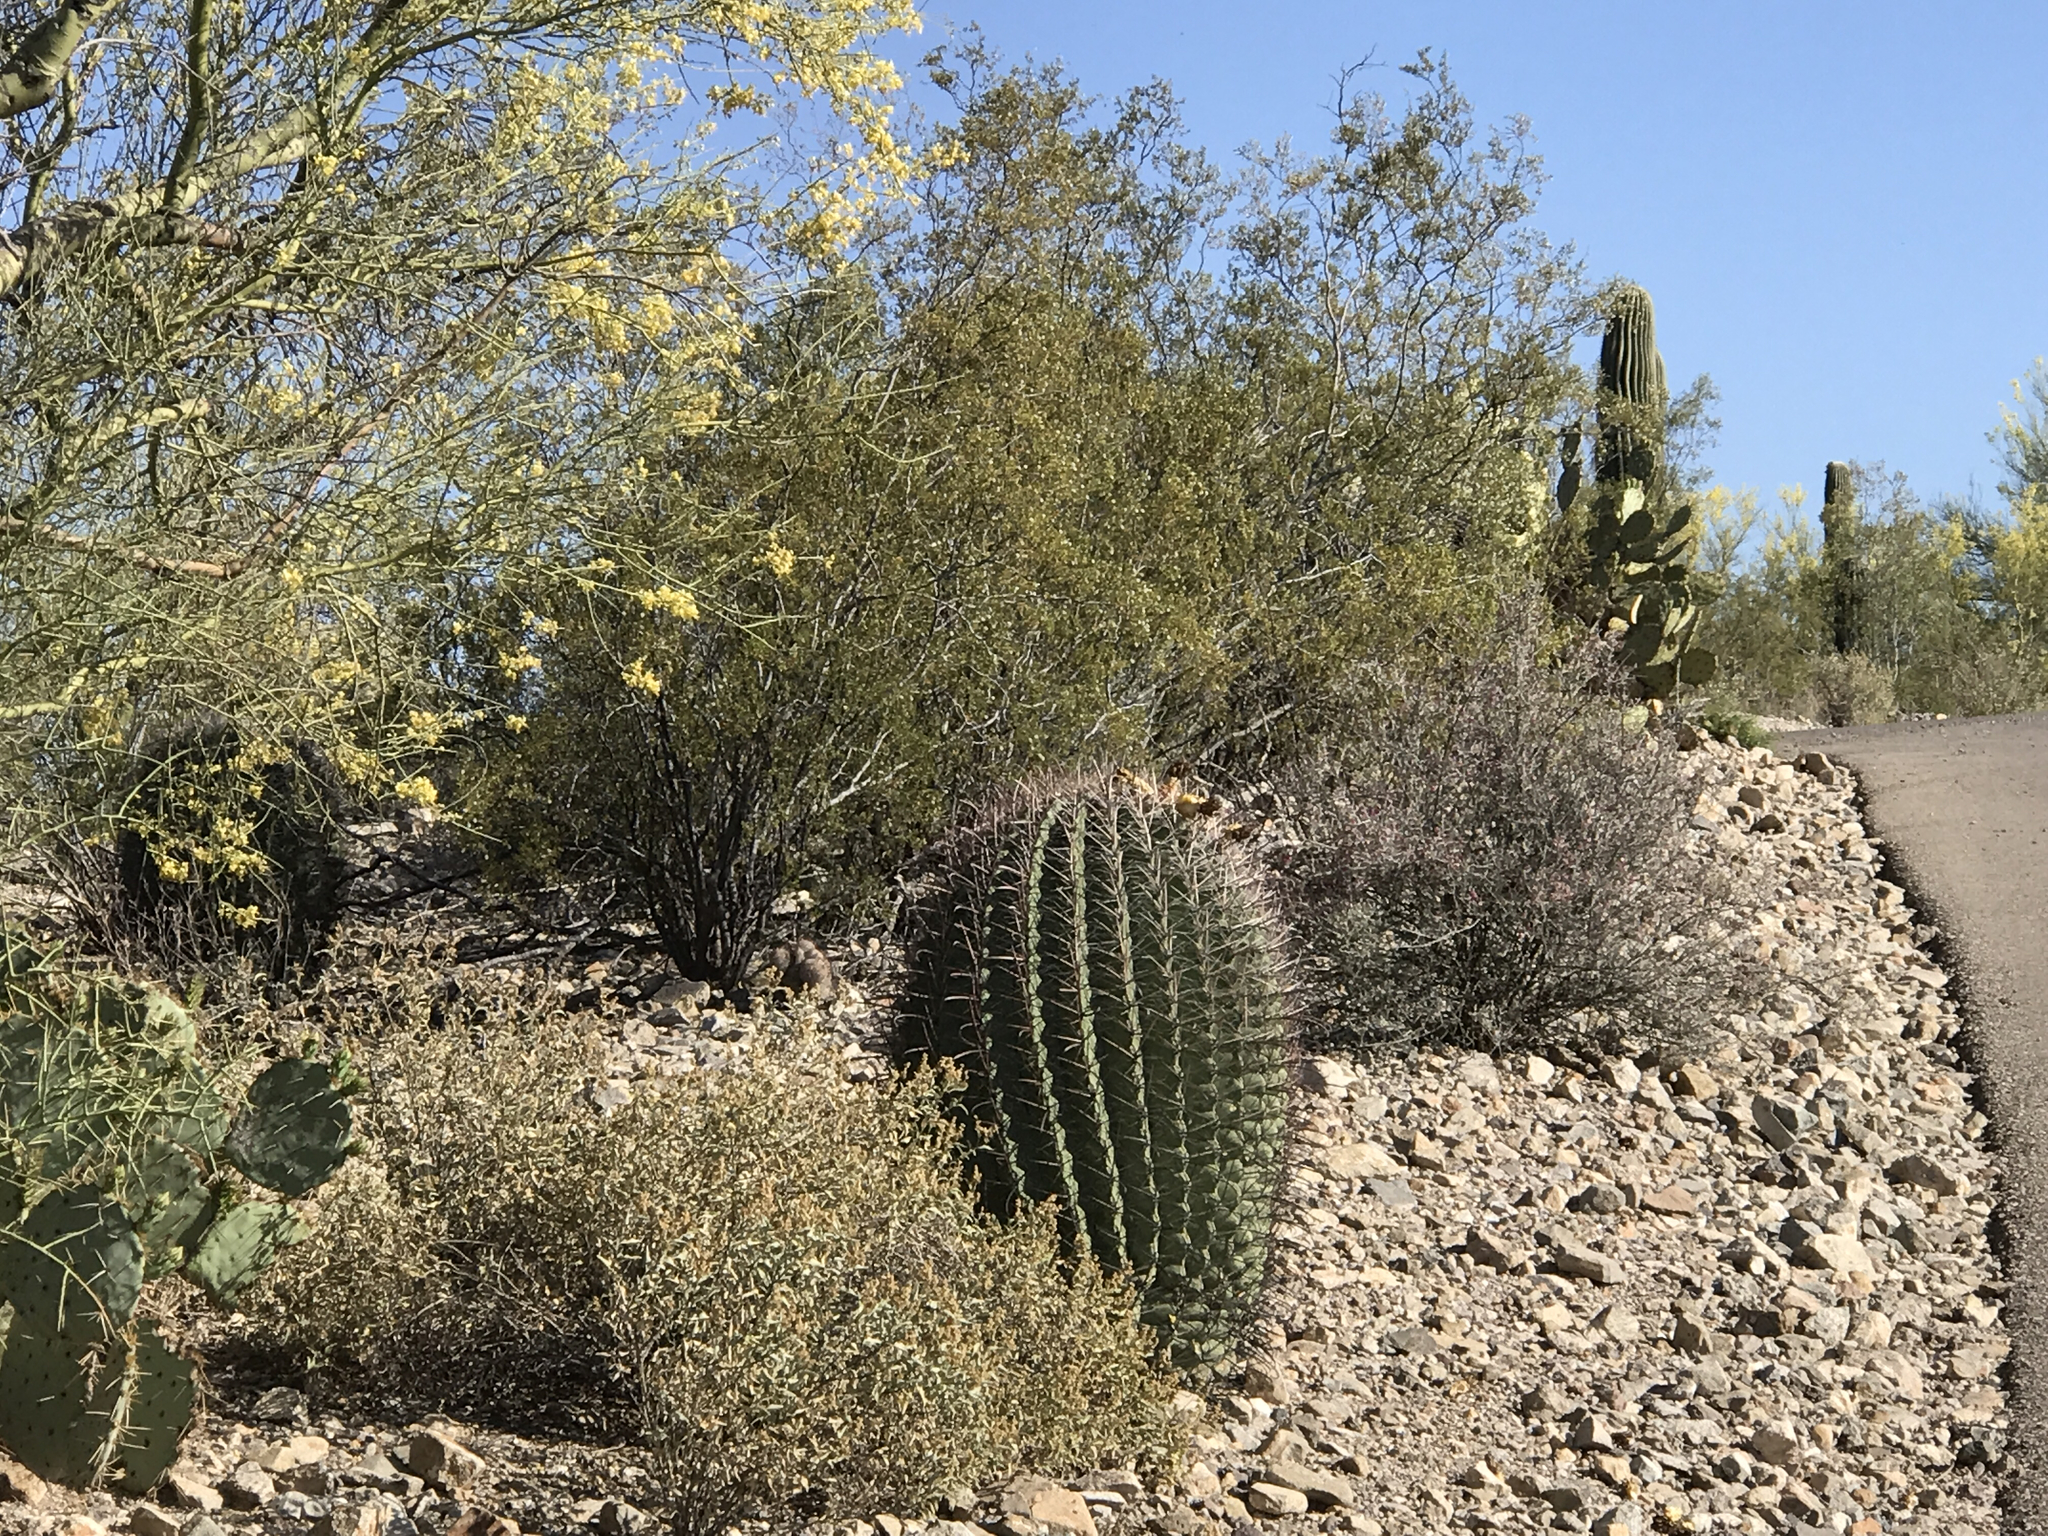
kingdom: Plantae
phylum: Tracheophyta
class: Magnoliopsida
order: Caryophyllales
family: Cactaceae
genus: Ferocactus
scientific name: Ferocactus wislizeni
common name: Candy barrel cactus
